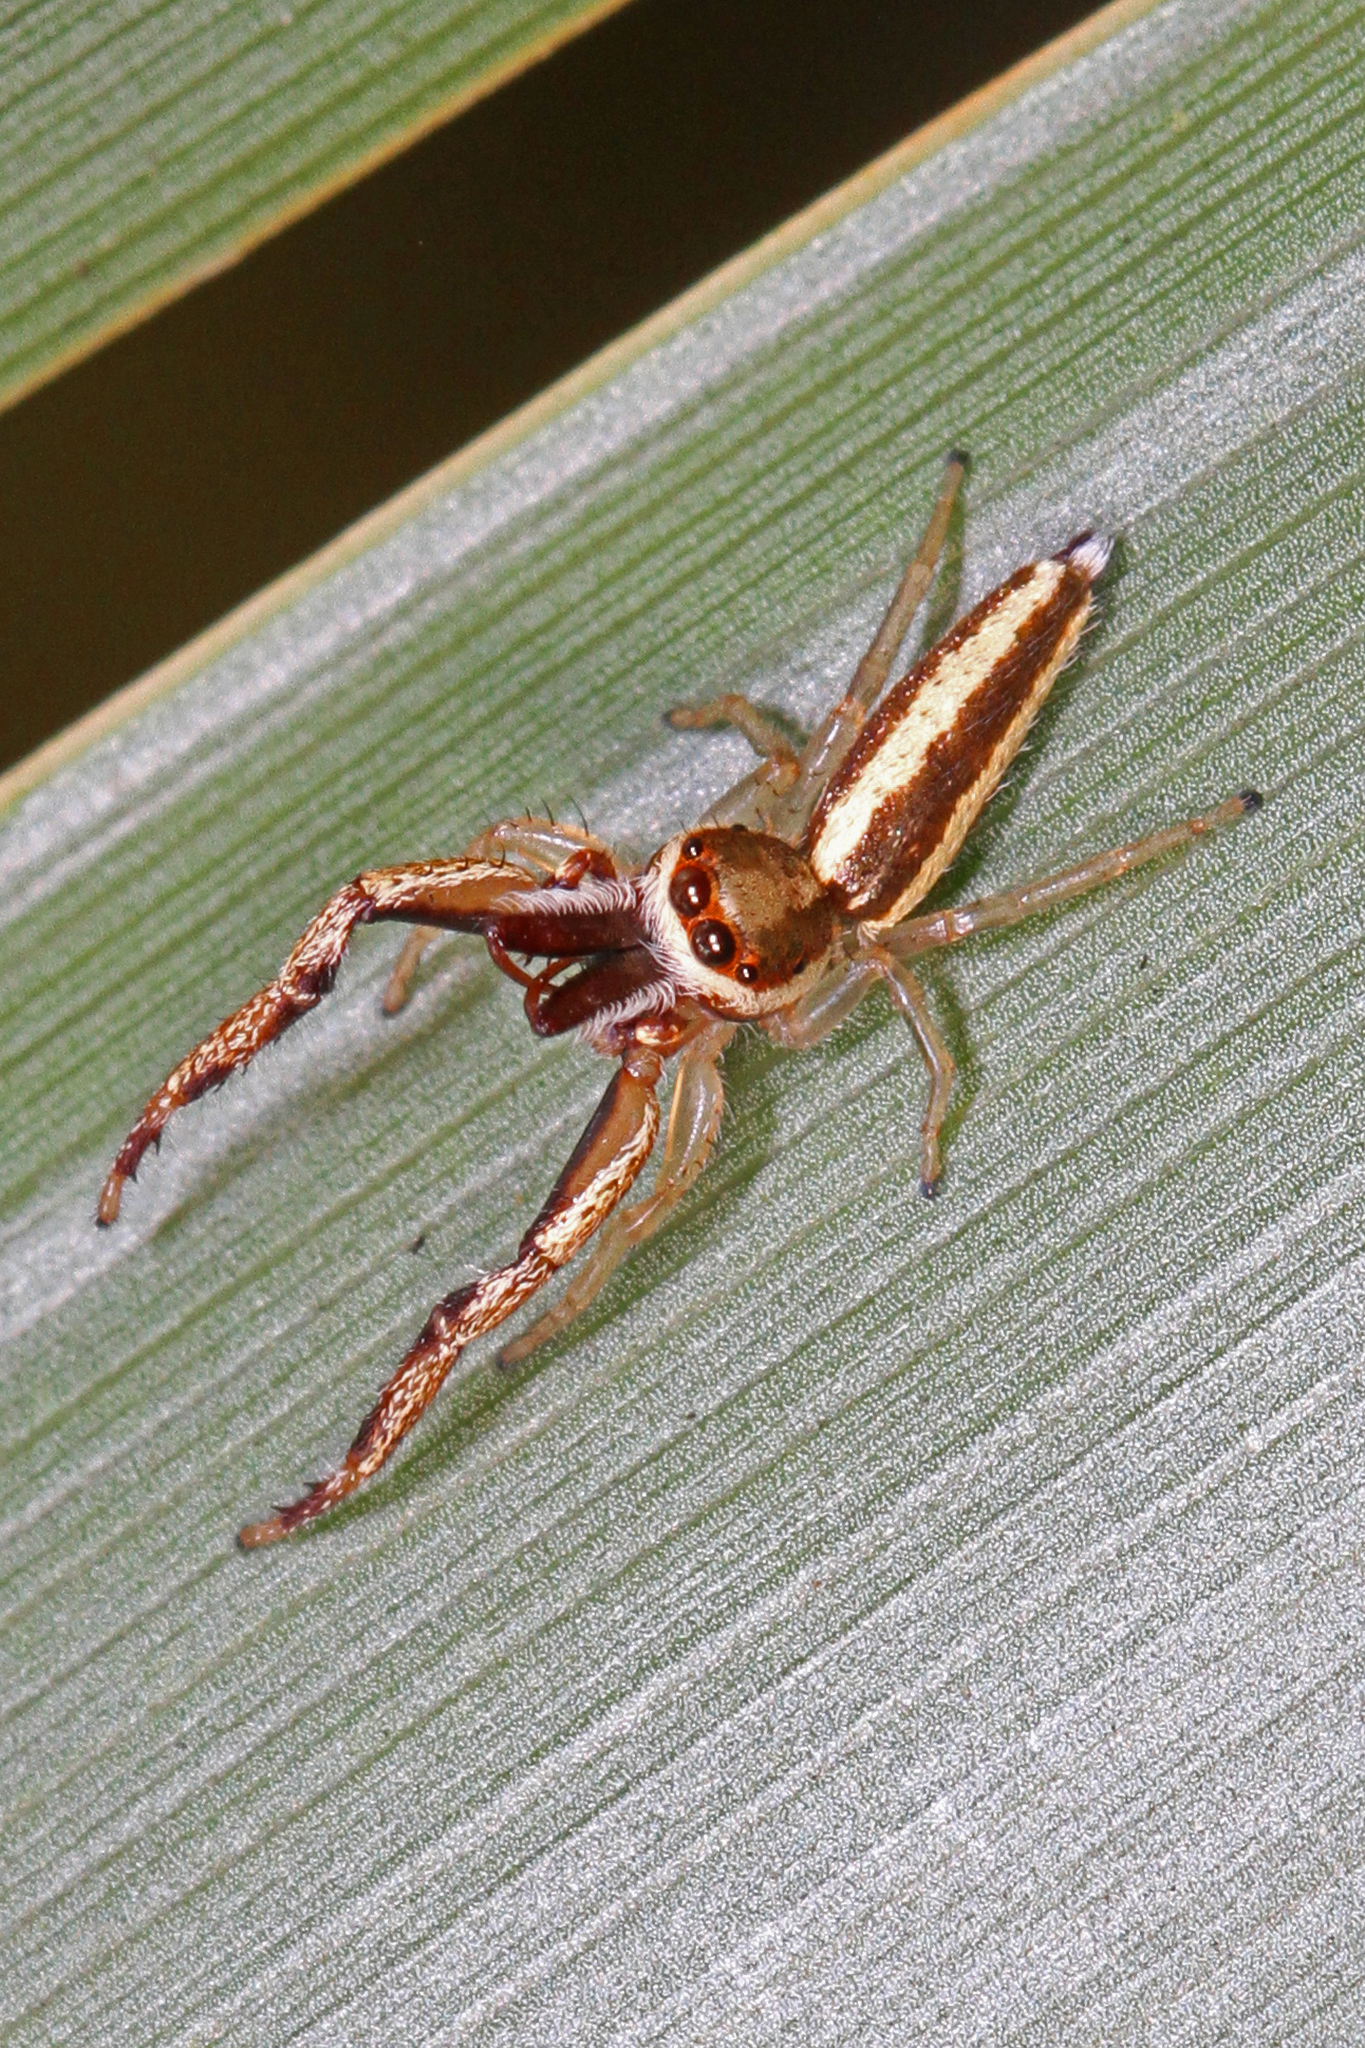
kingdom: Animalia
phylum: Arthropoda
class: Arachnida
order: Araneae
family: Salticidae
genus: Hentzia
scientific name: Hentzia grenada
